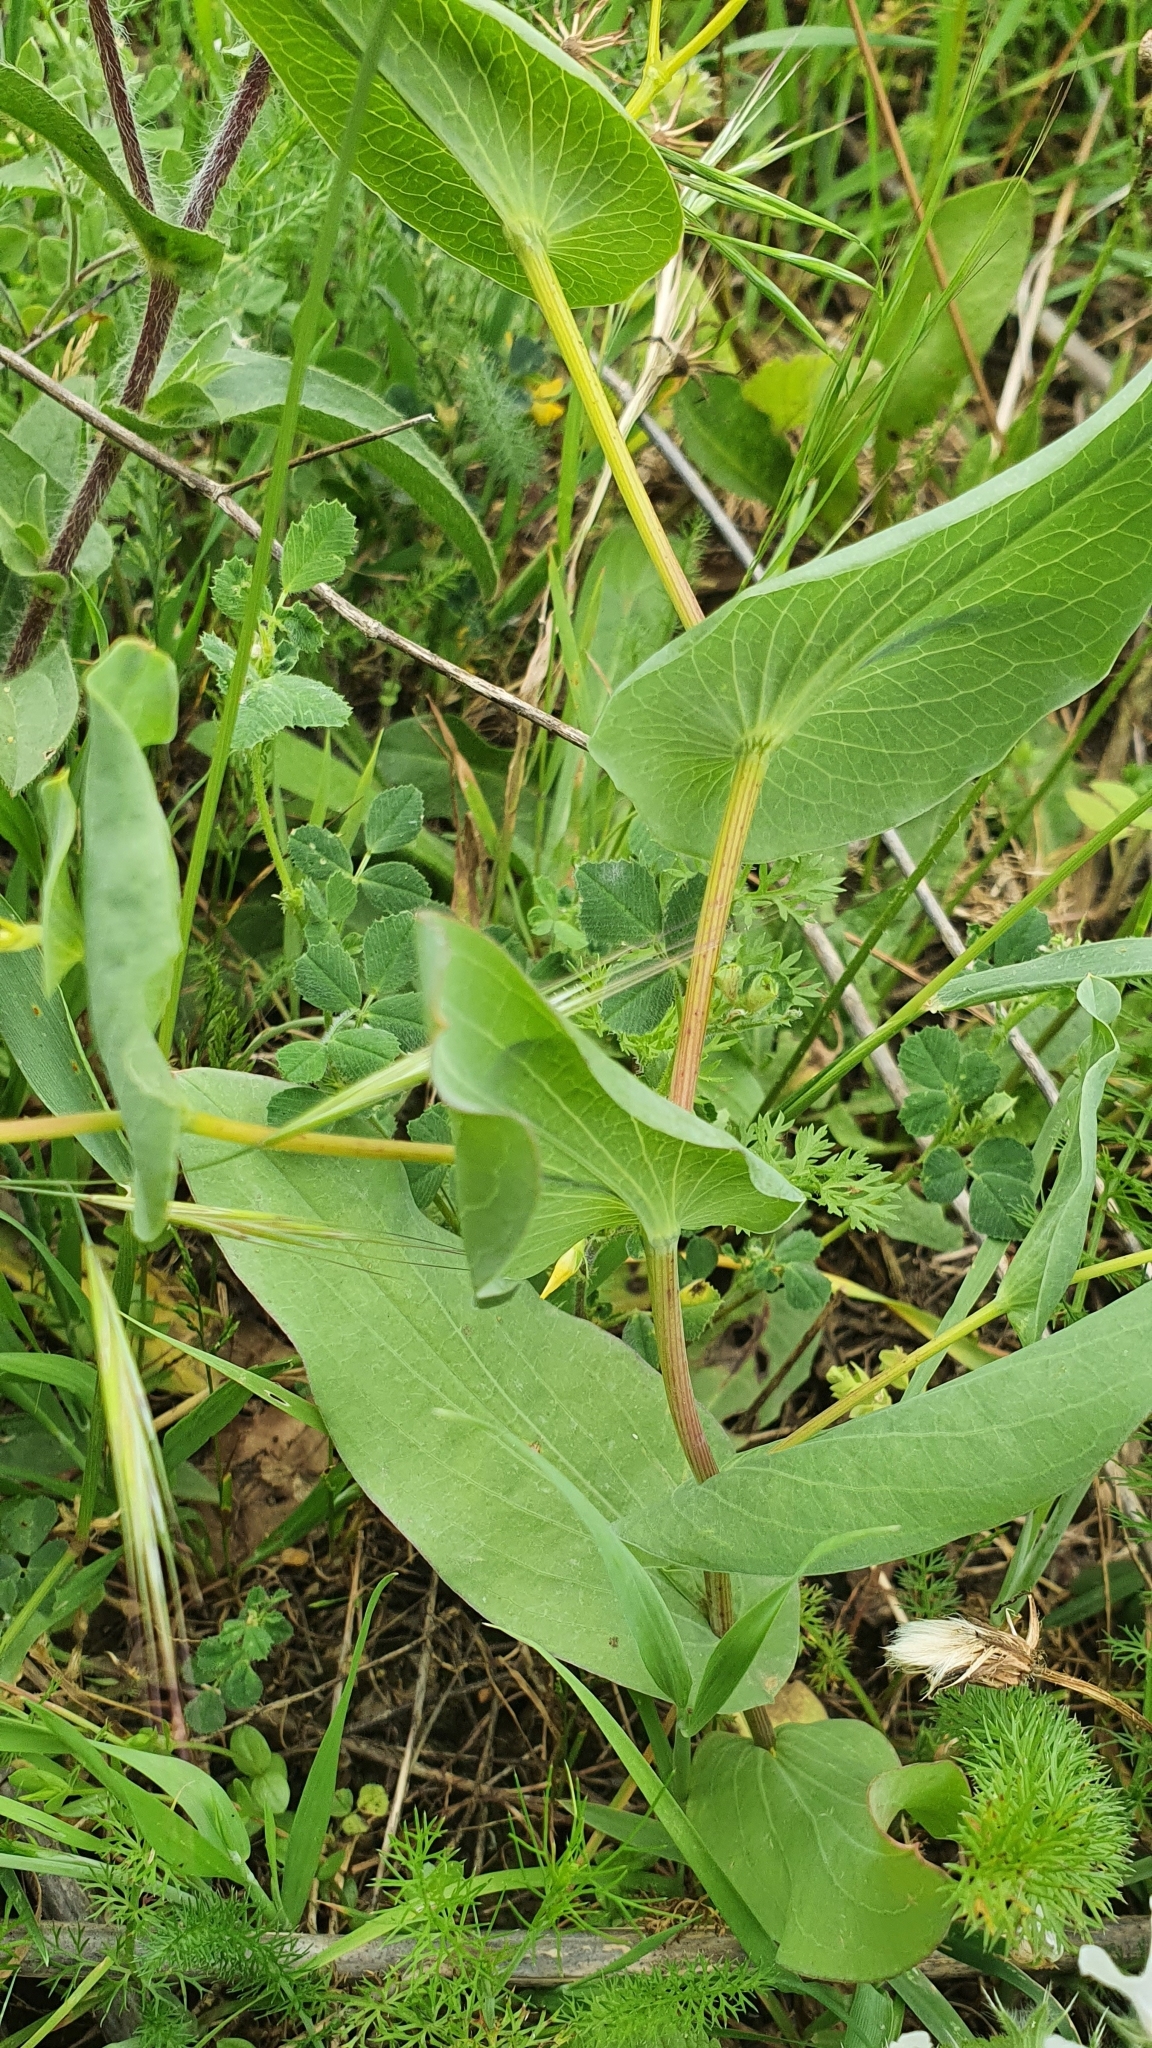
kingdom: Plantae
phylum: Tracheophyta
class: Magnoliopsida
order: Apiales
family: Apiaceae
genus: Bupleurum
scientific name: Bupleurum subovatum
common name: False thorow-wax
